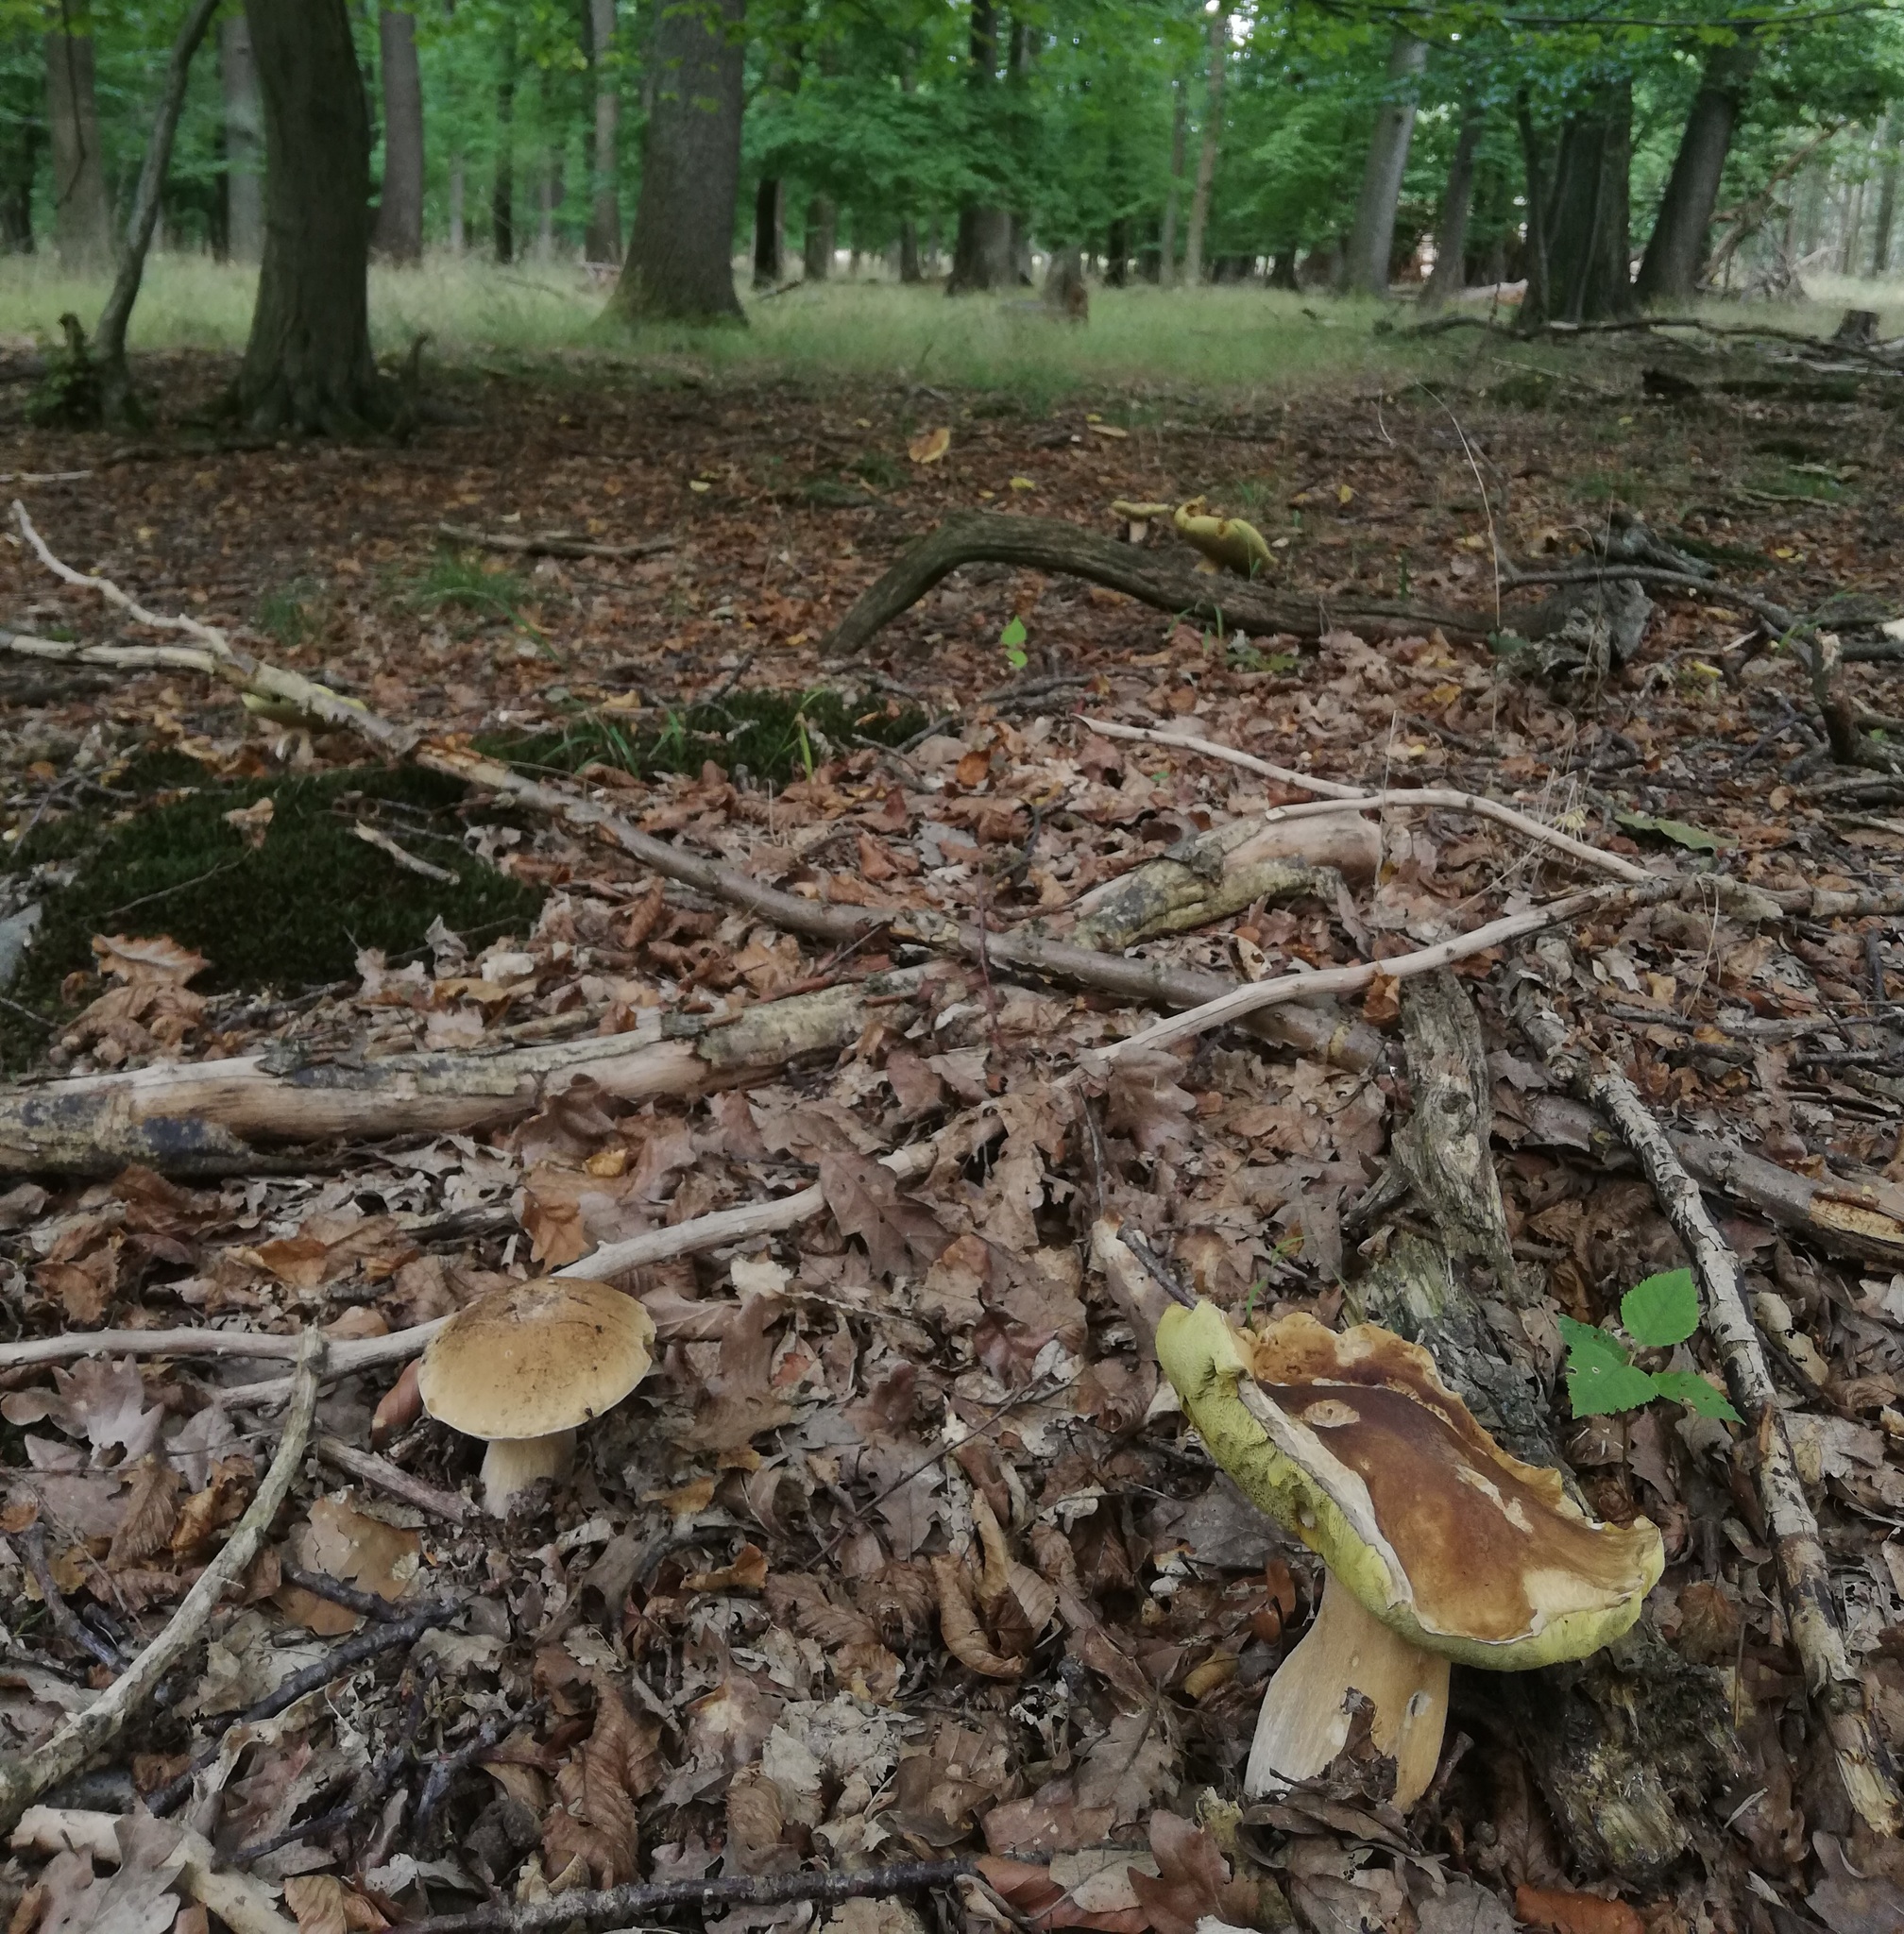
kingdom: Fungi
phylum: Basidiomycota
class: Agaricomycetes
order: Boletales
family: Boletaceae
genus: Boletus
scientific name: Boletus edulis
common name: Cep
